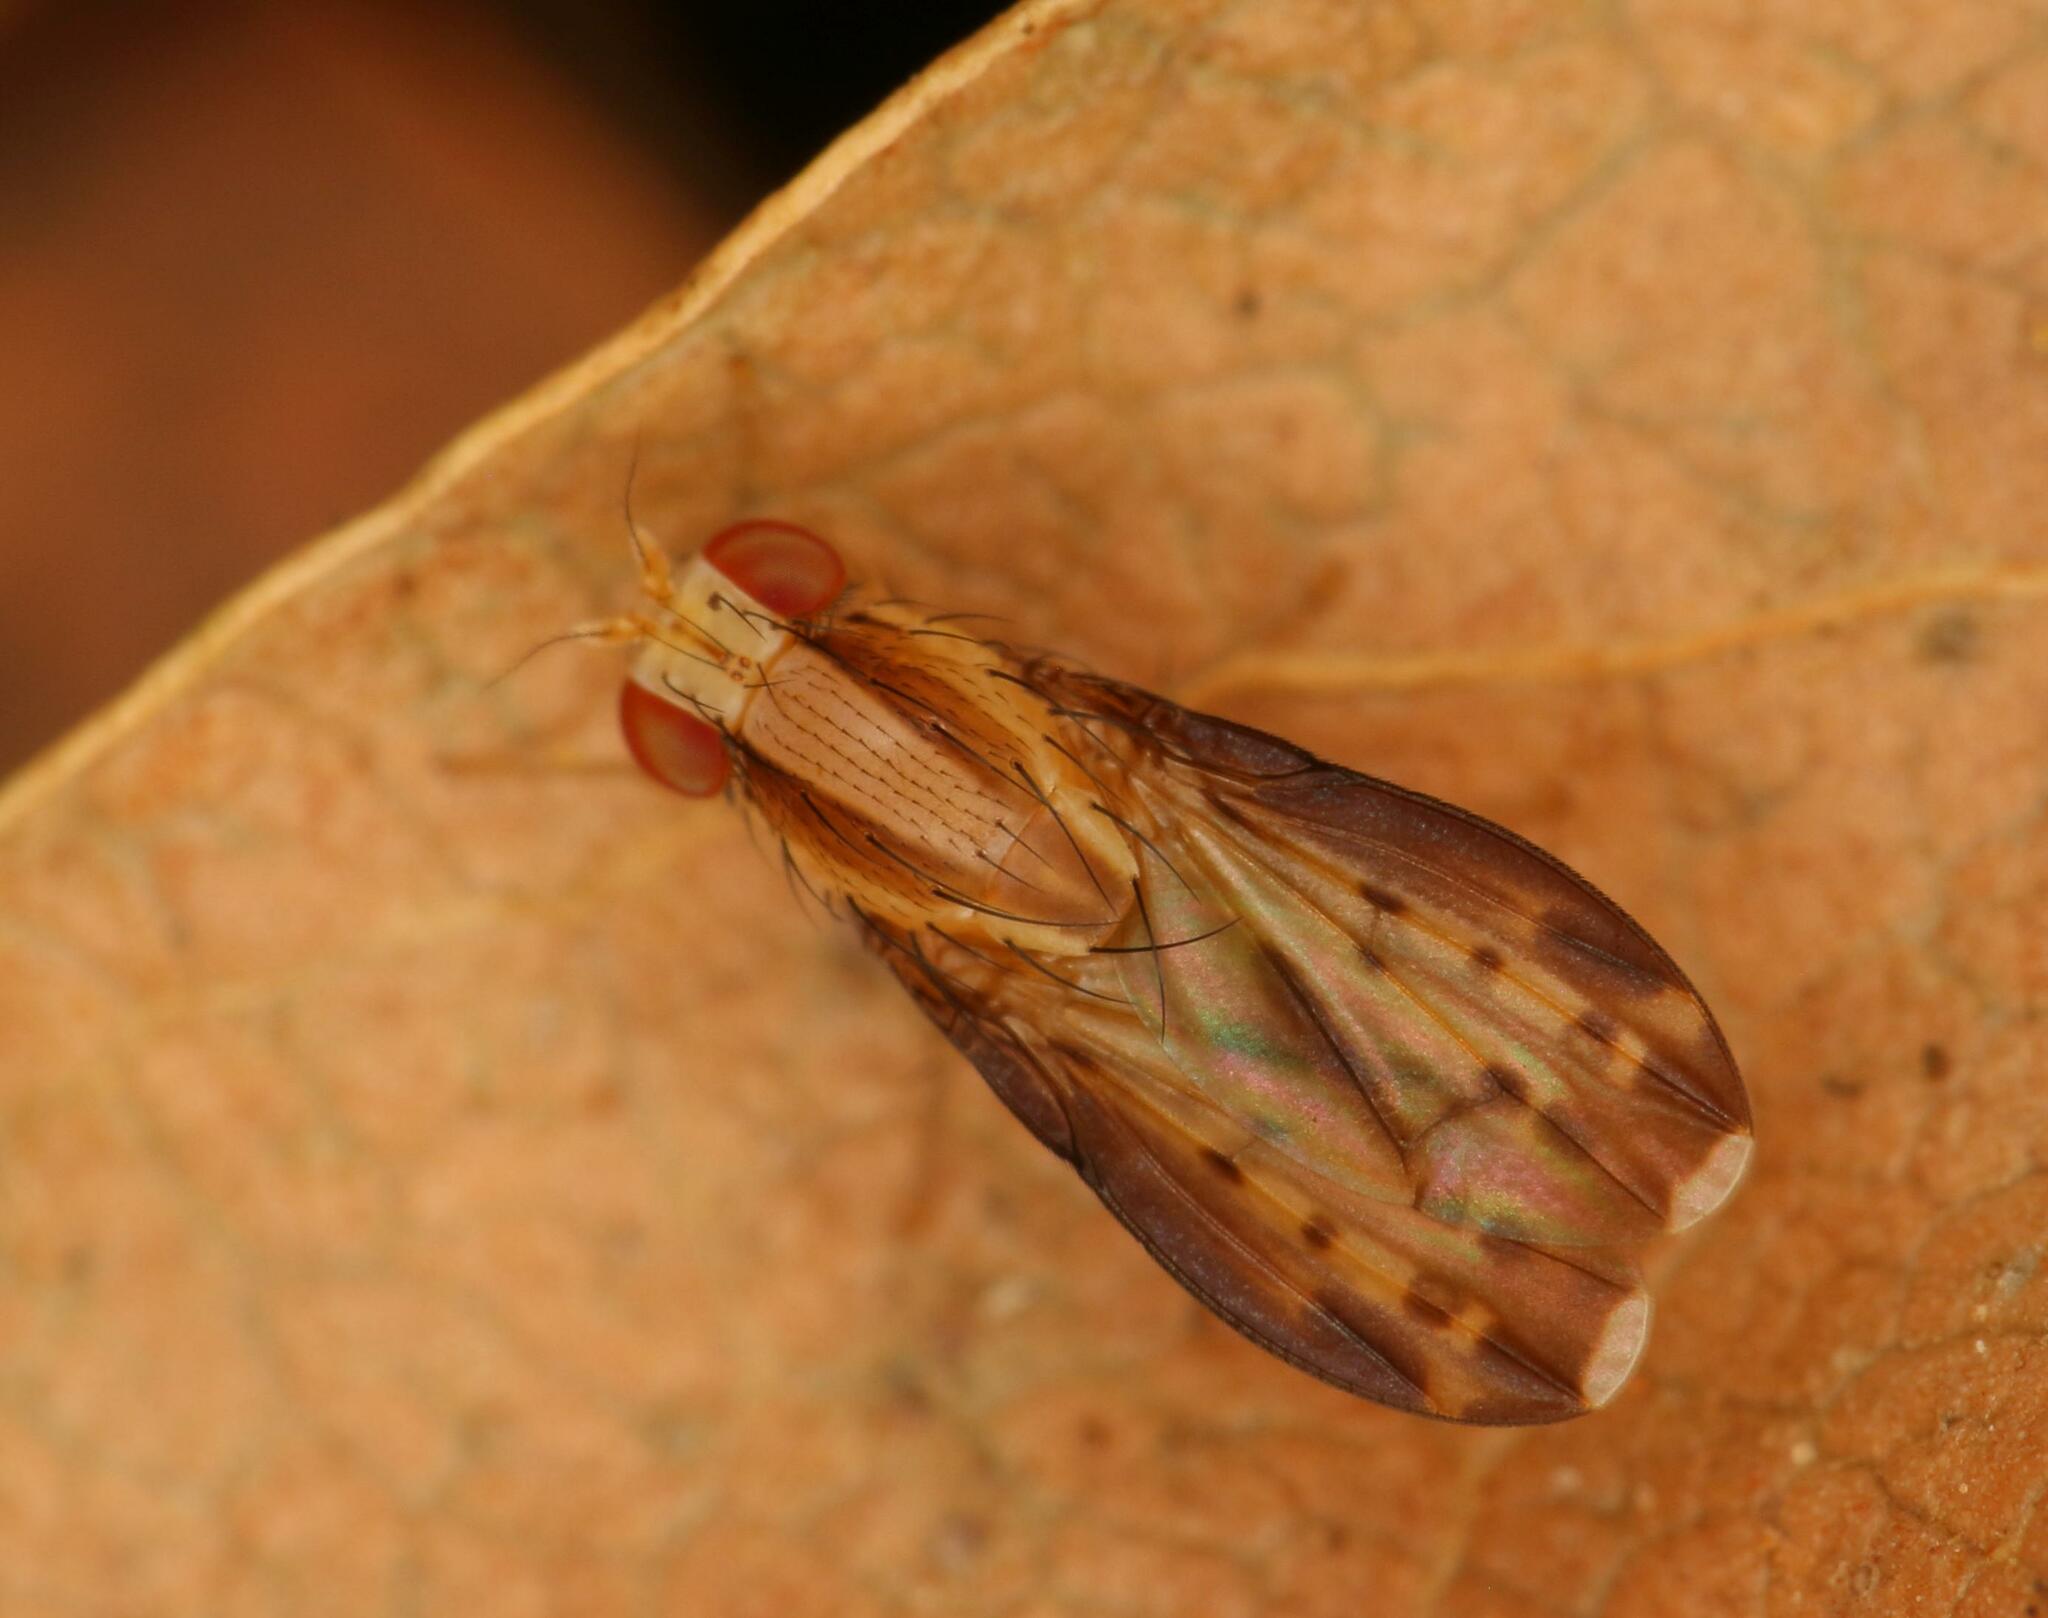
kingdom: Animalia
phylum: Arthropoda
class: Insecta
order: Diptera
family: Lauxaniidae
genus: Homoneura
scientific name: Homoneura terminalis
